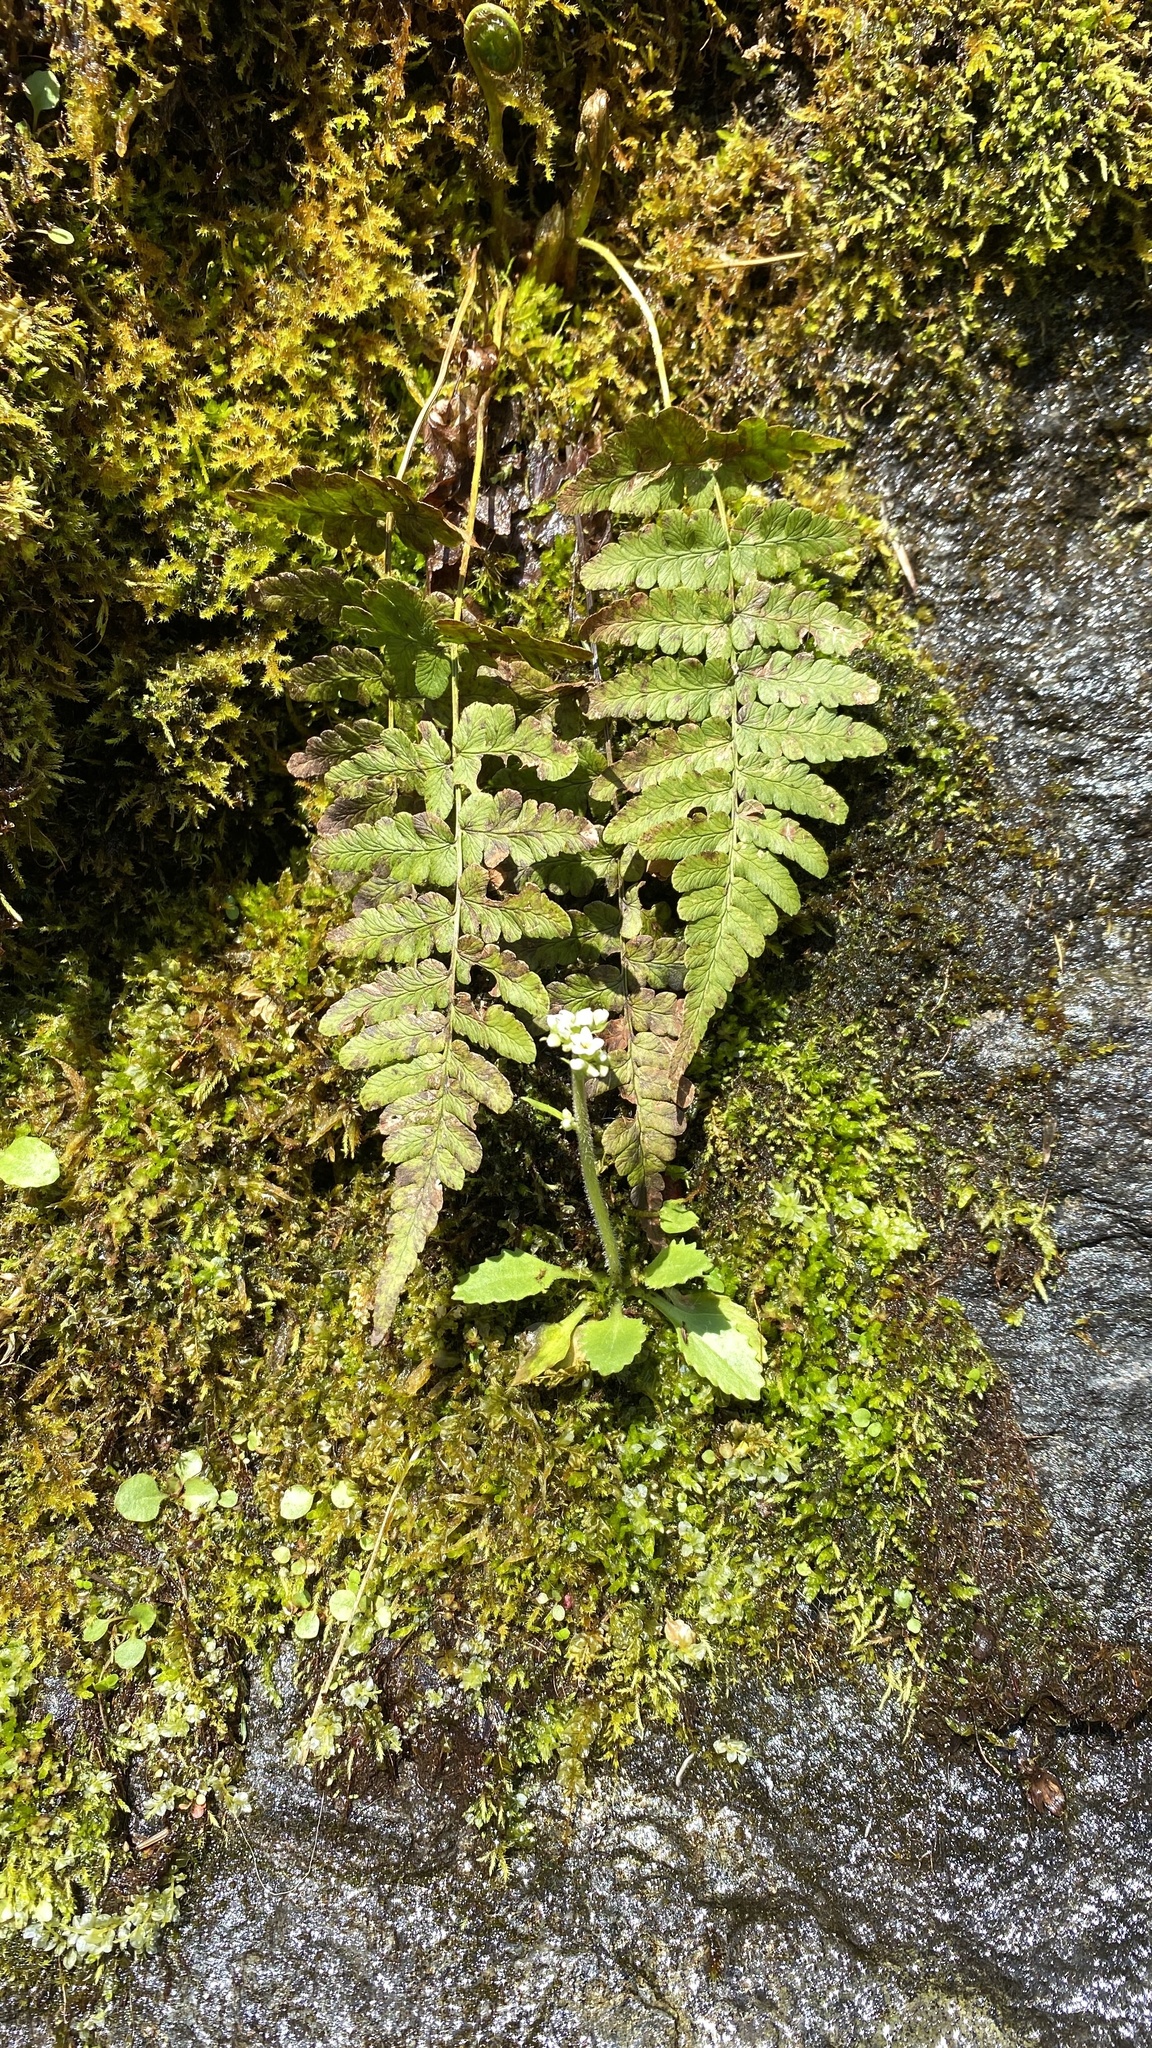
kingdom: Plantae
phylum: Tracheophyta
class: Magnoliopsida
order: Saxifragales
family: Saxifragaceae
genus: Micranthes
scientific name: Micranthes virginiensis
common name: Early saxifrage
